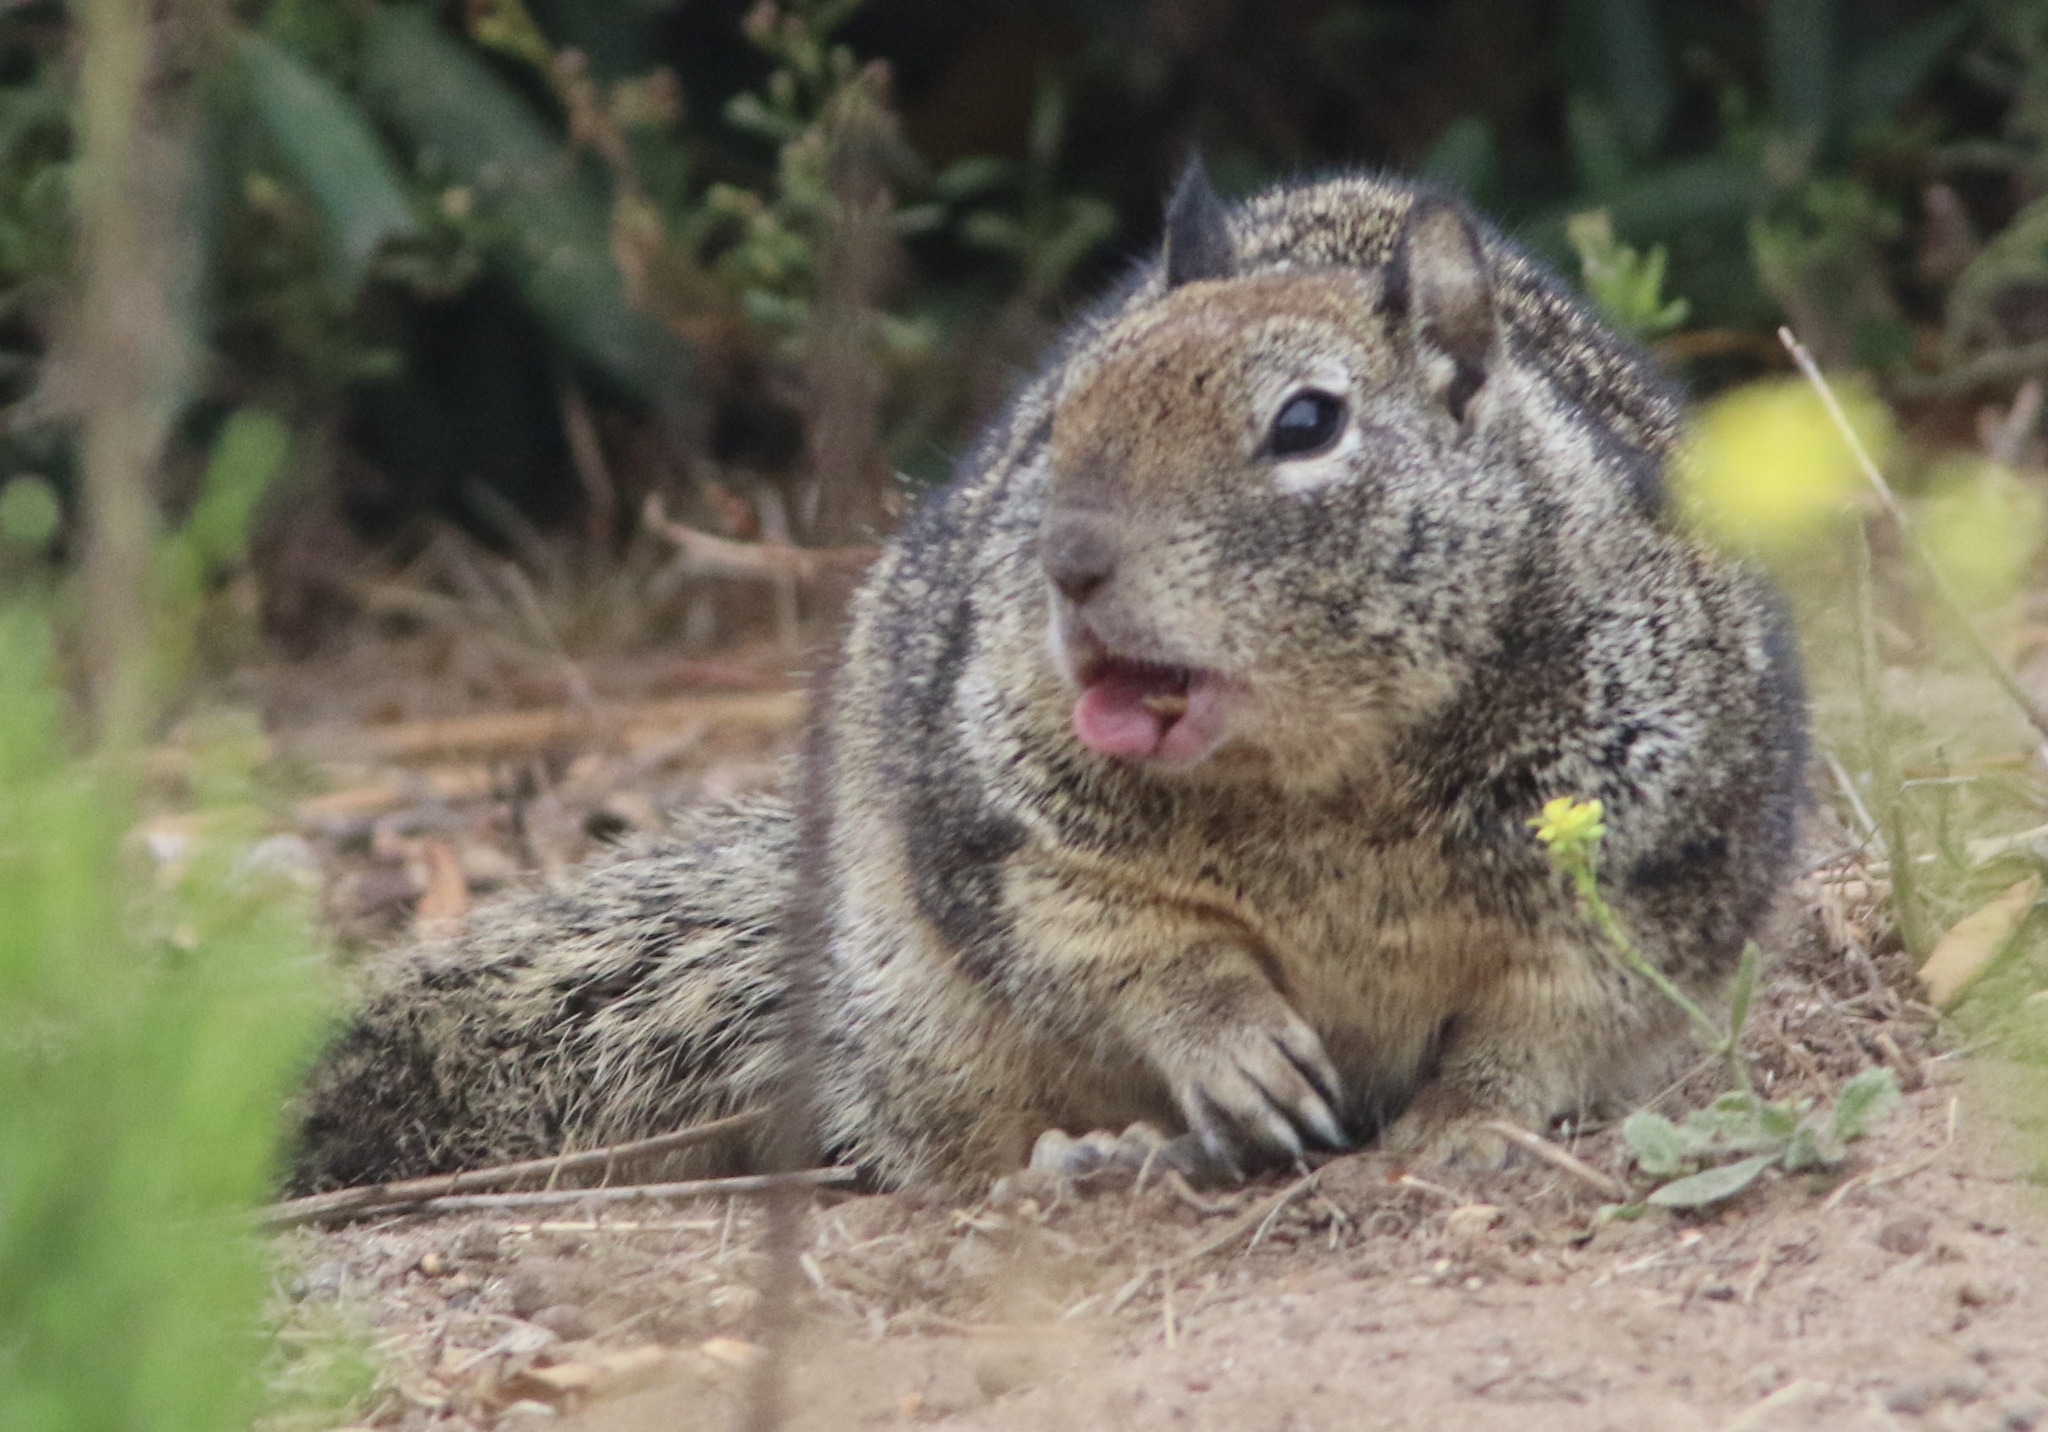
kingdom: Animalia
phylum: Chordata
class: Mammalia
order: Rodentia
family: Sciuridae
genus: Otospermophilus
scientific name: Otospermophilus beecheyi
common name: California ground squirrel
